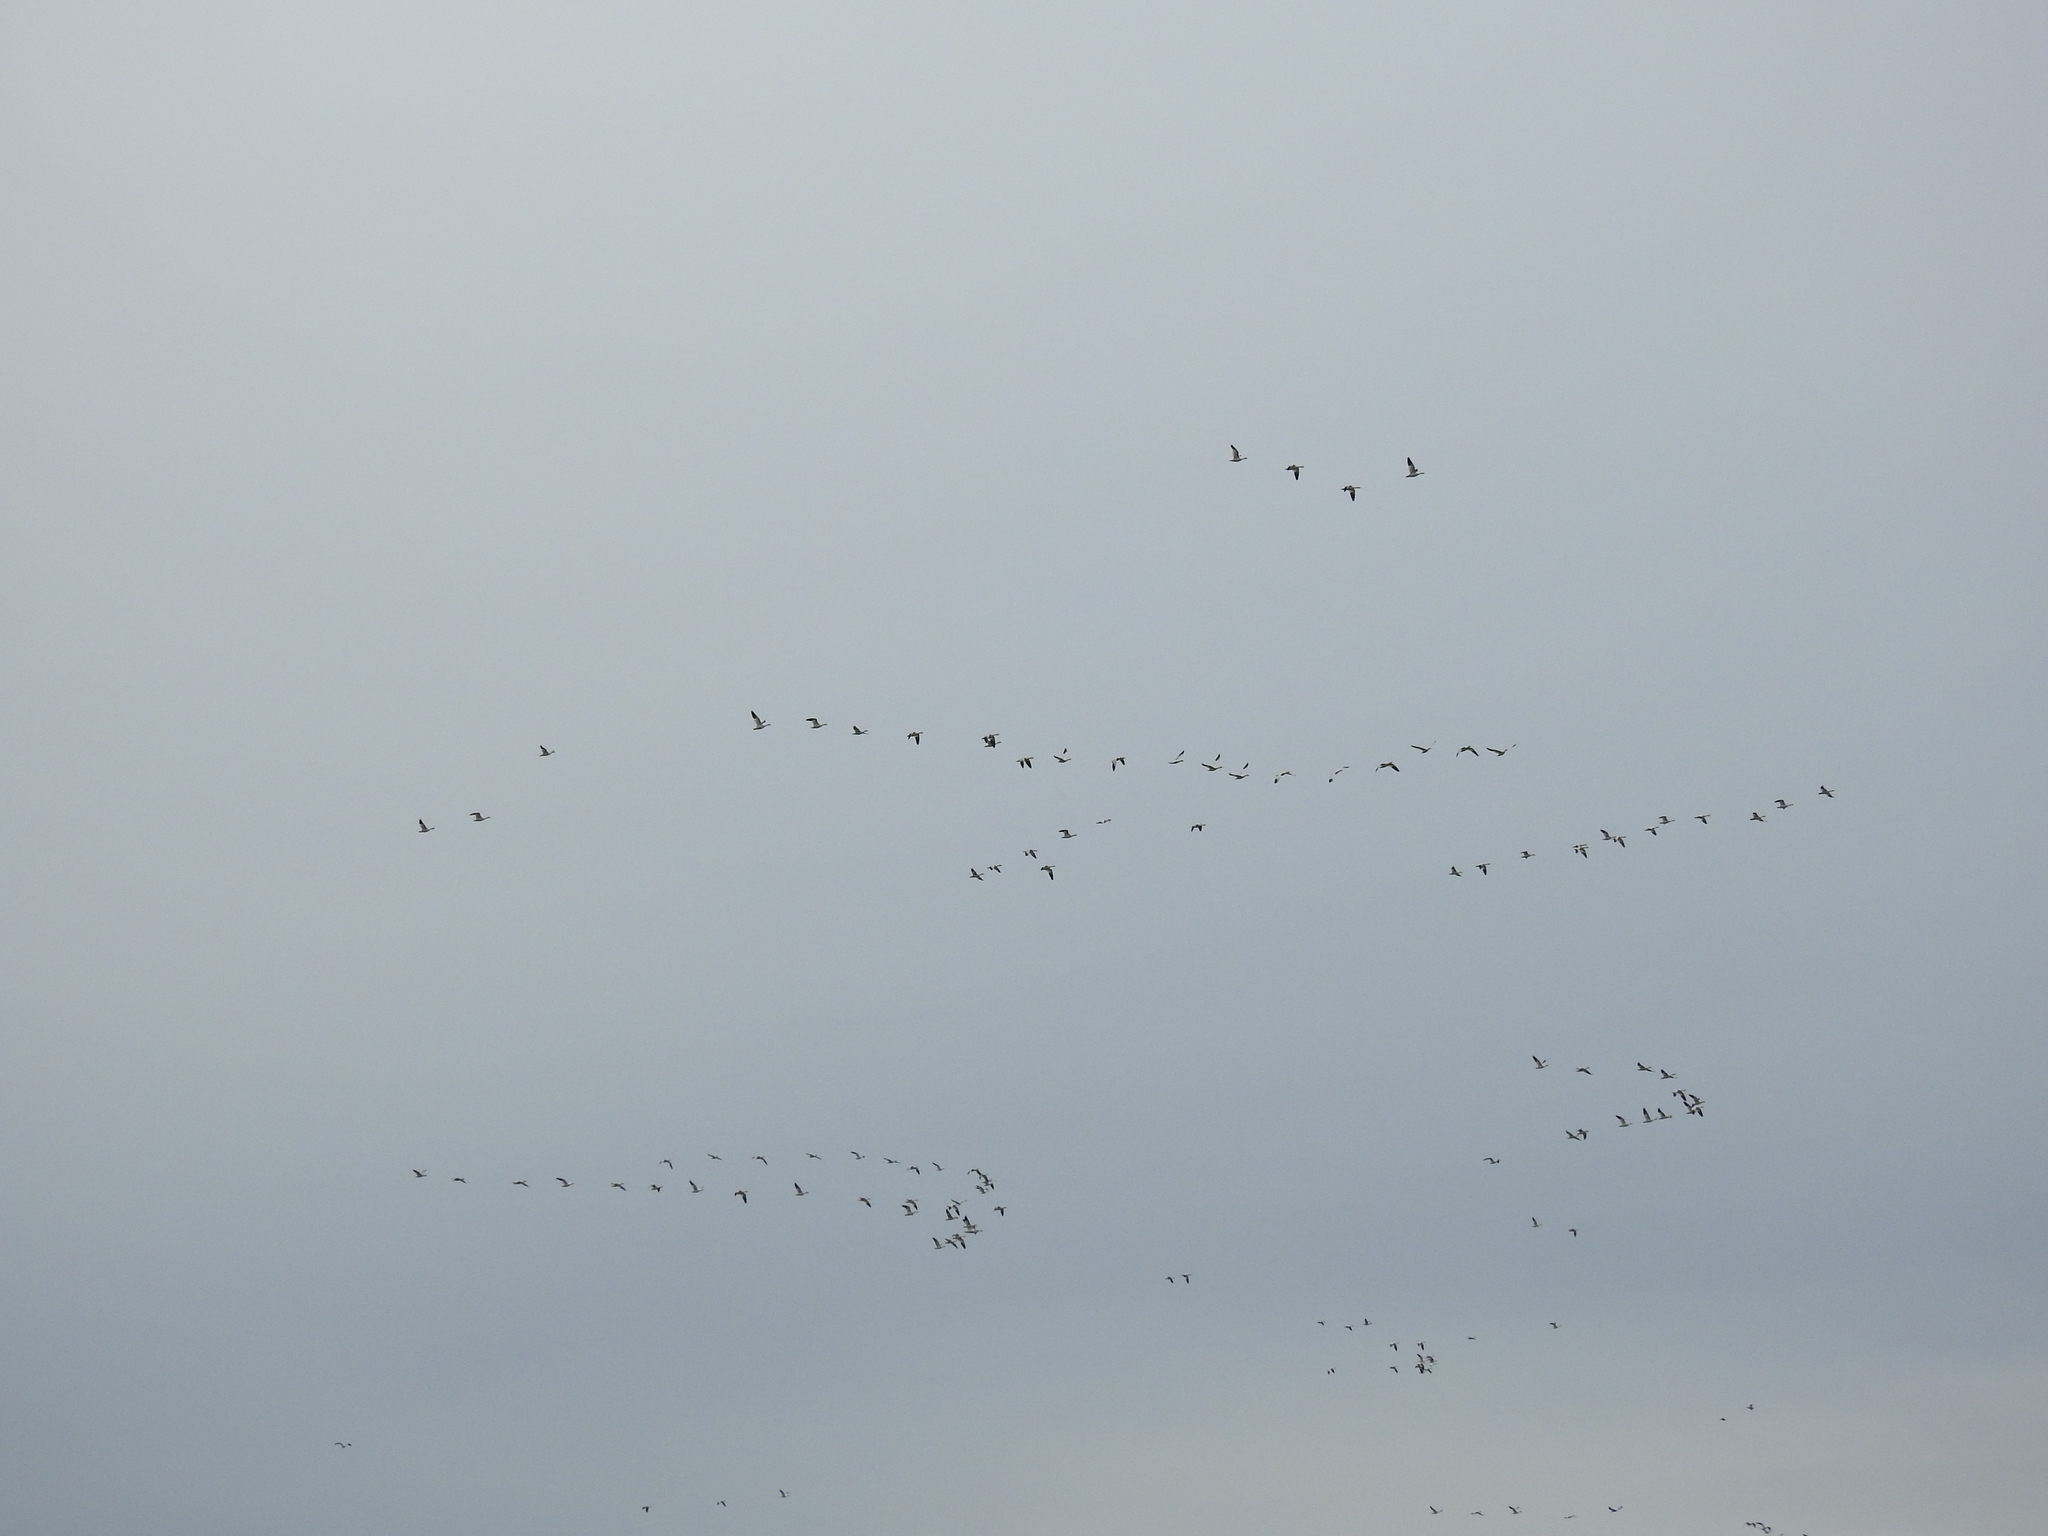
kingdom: Animalia
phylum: Chordata
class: Aves
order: Anseriformes
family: Anatidae
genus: Anser
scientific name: Anser caerulescens
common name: Snow goose
